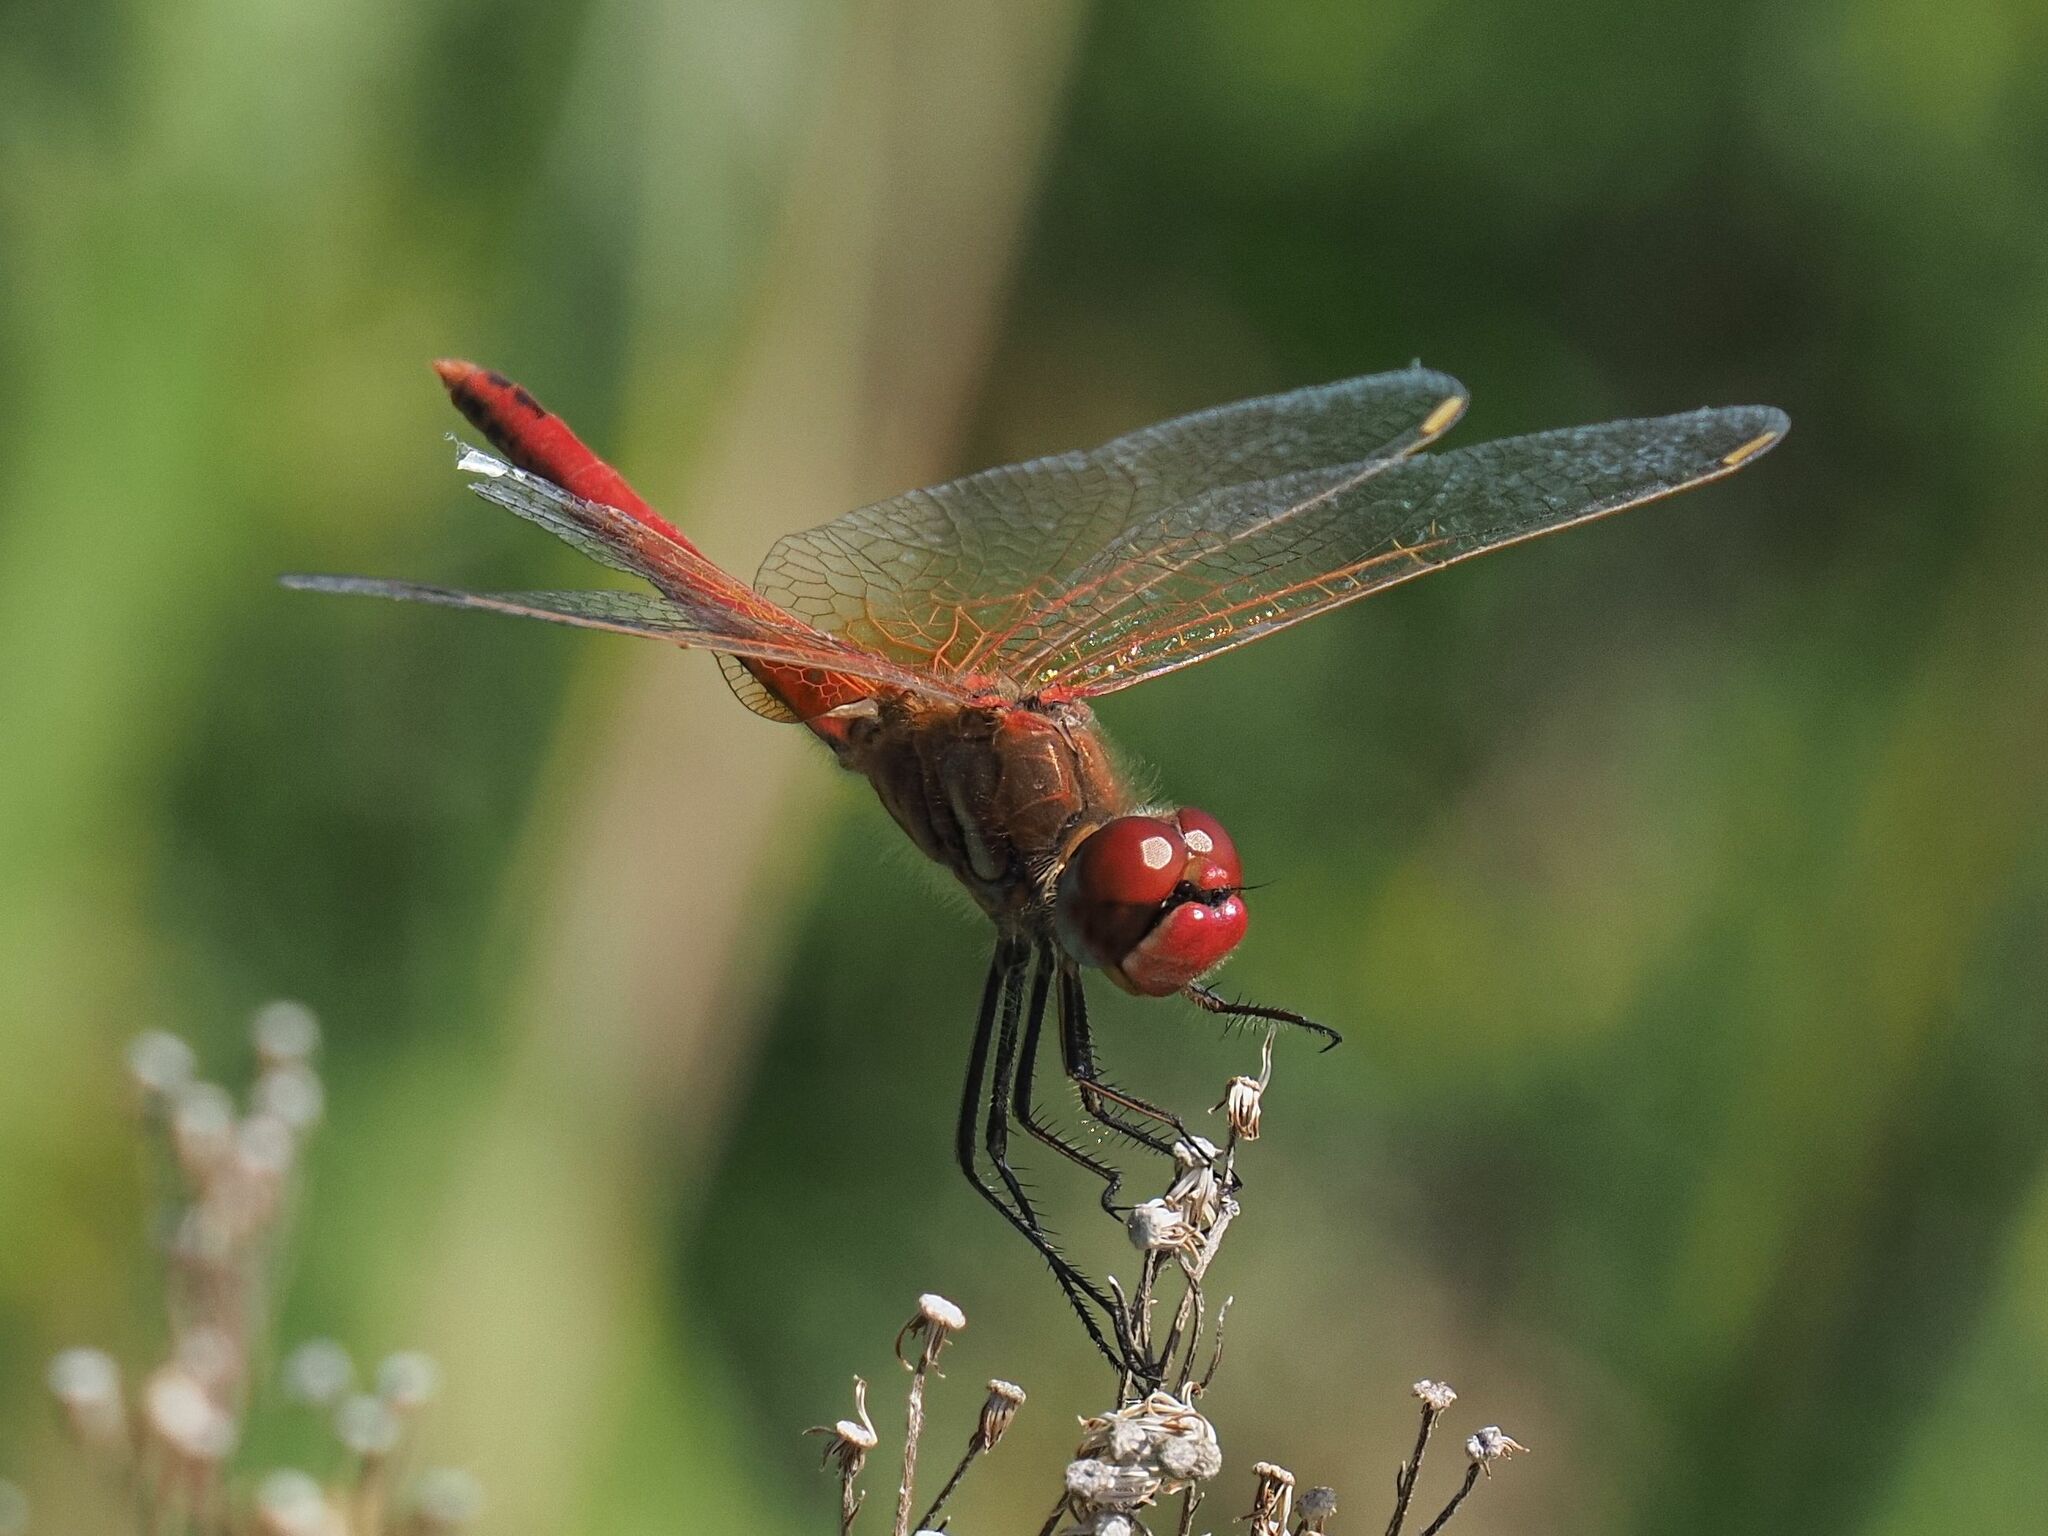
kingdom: Animalia
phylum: Arthropoda
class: Insecta
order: Odonata
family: Libellulidae
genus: Sympetrum
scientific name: Sympetrum fonscolombii
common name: Red-veined darter
